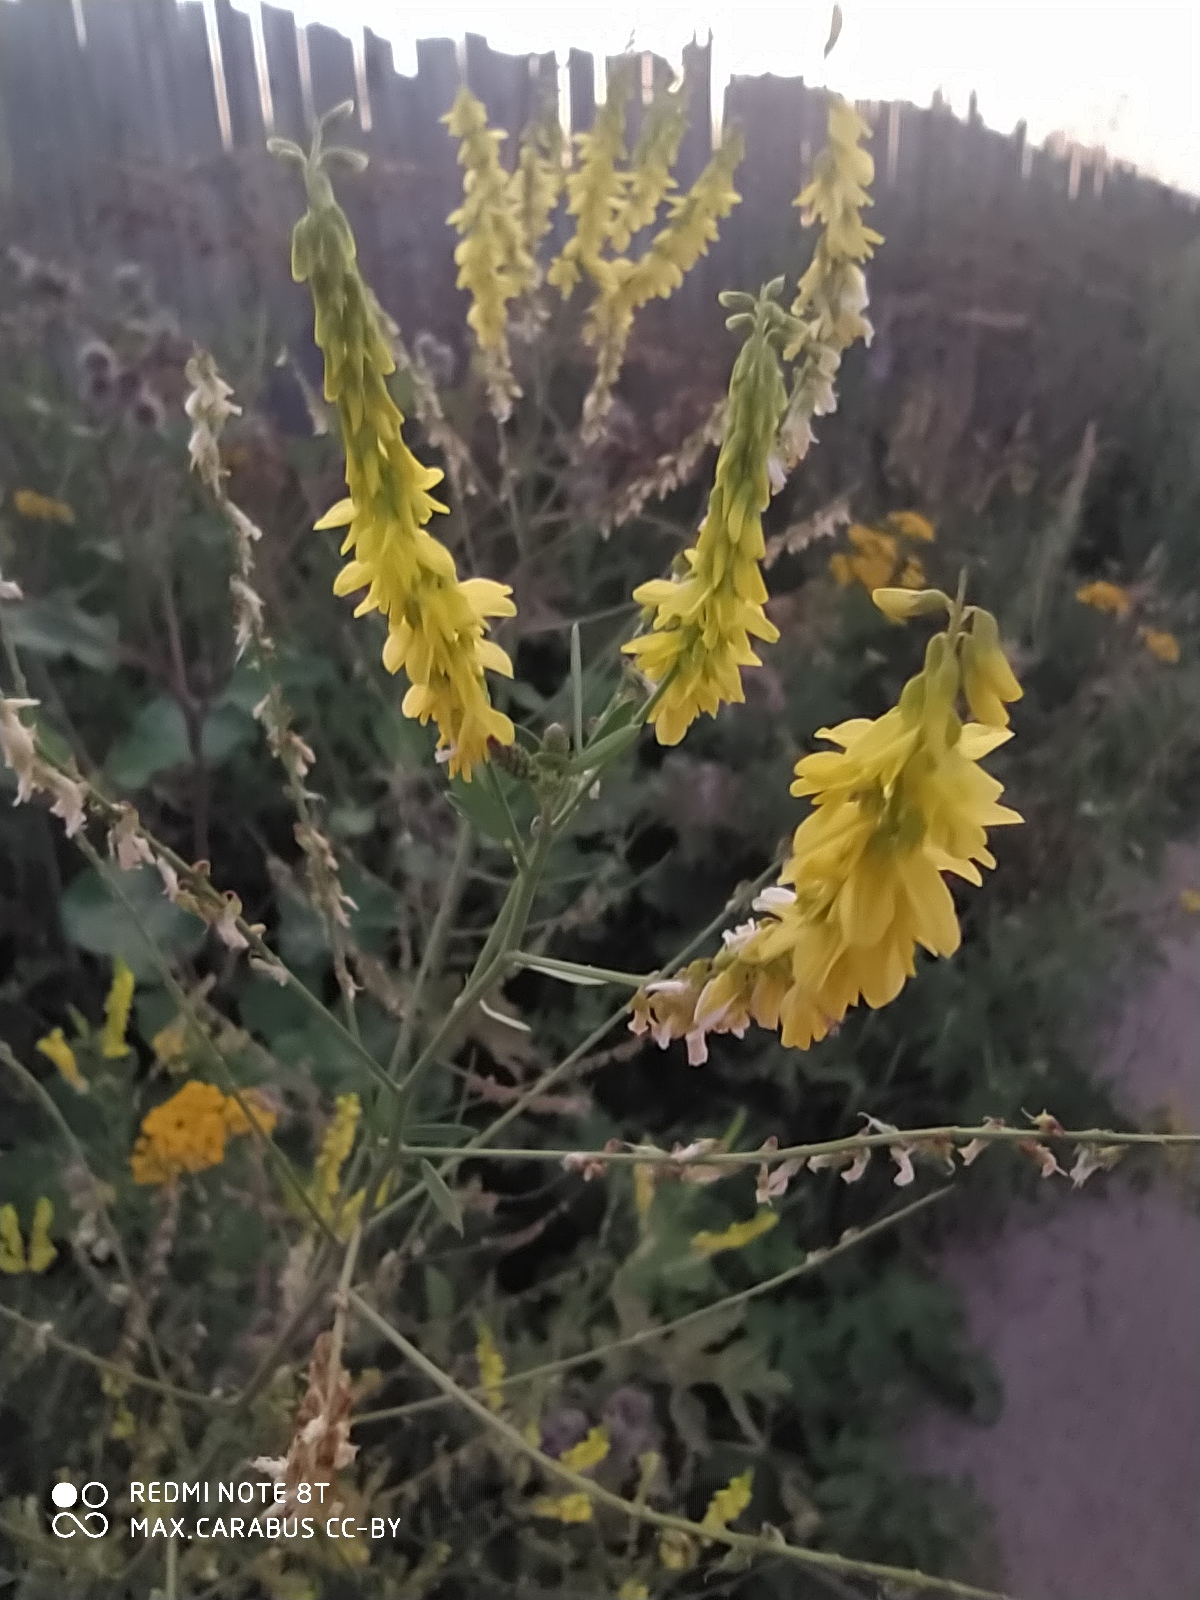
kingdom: Plantae
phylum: Tracheophyta
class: Magnoliopsida
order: Fabales
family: Fabaceae
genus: Melilotus
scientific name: Melilotus officinalis
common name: Sweetclover
